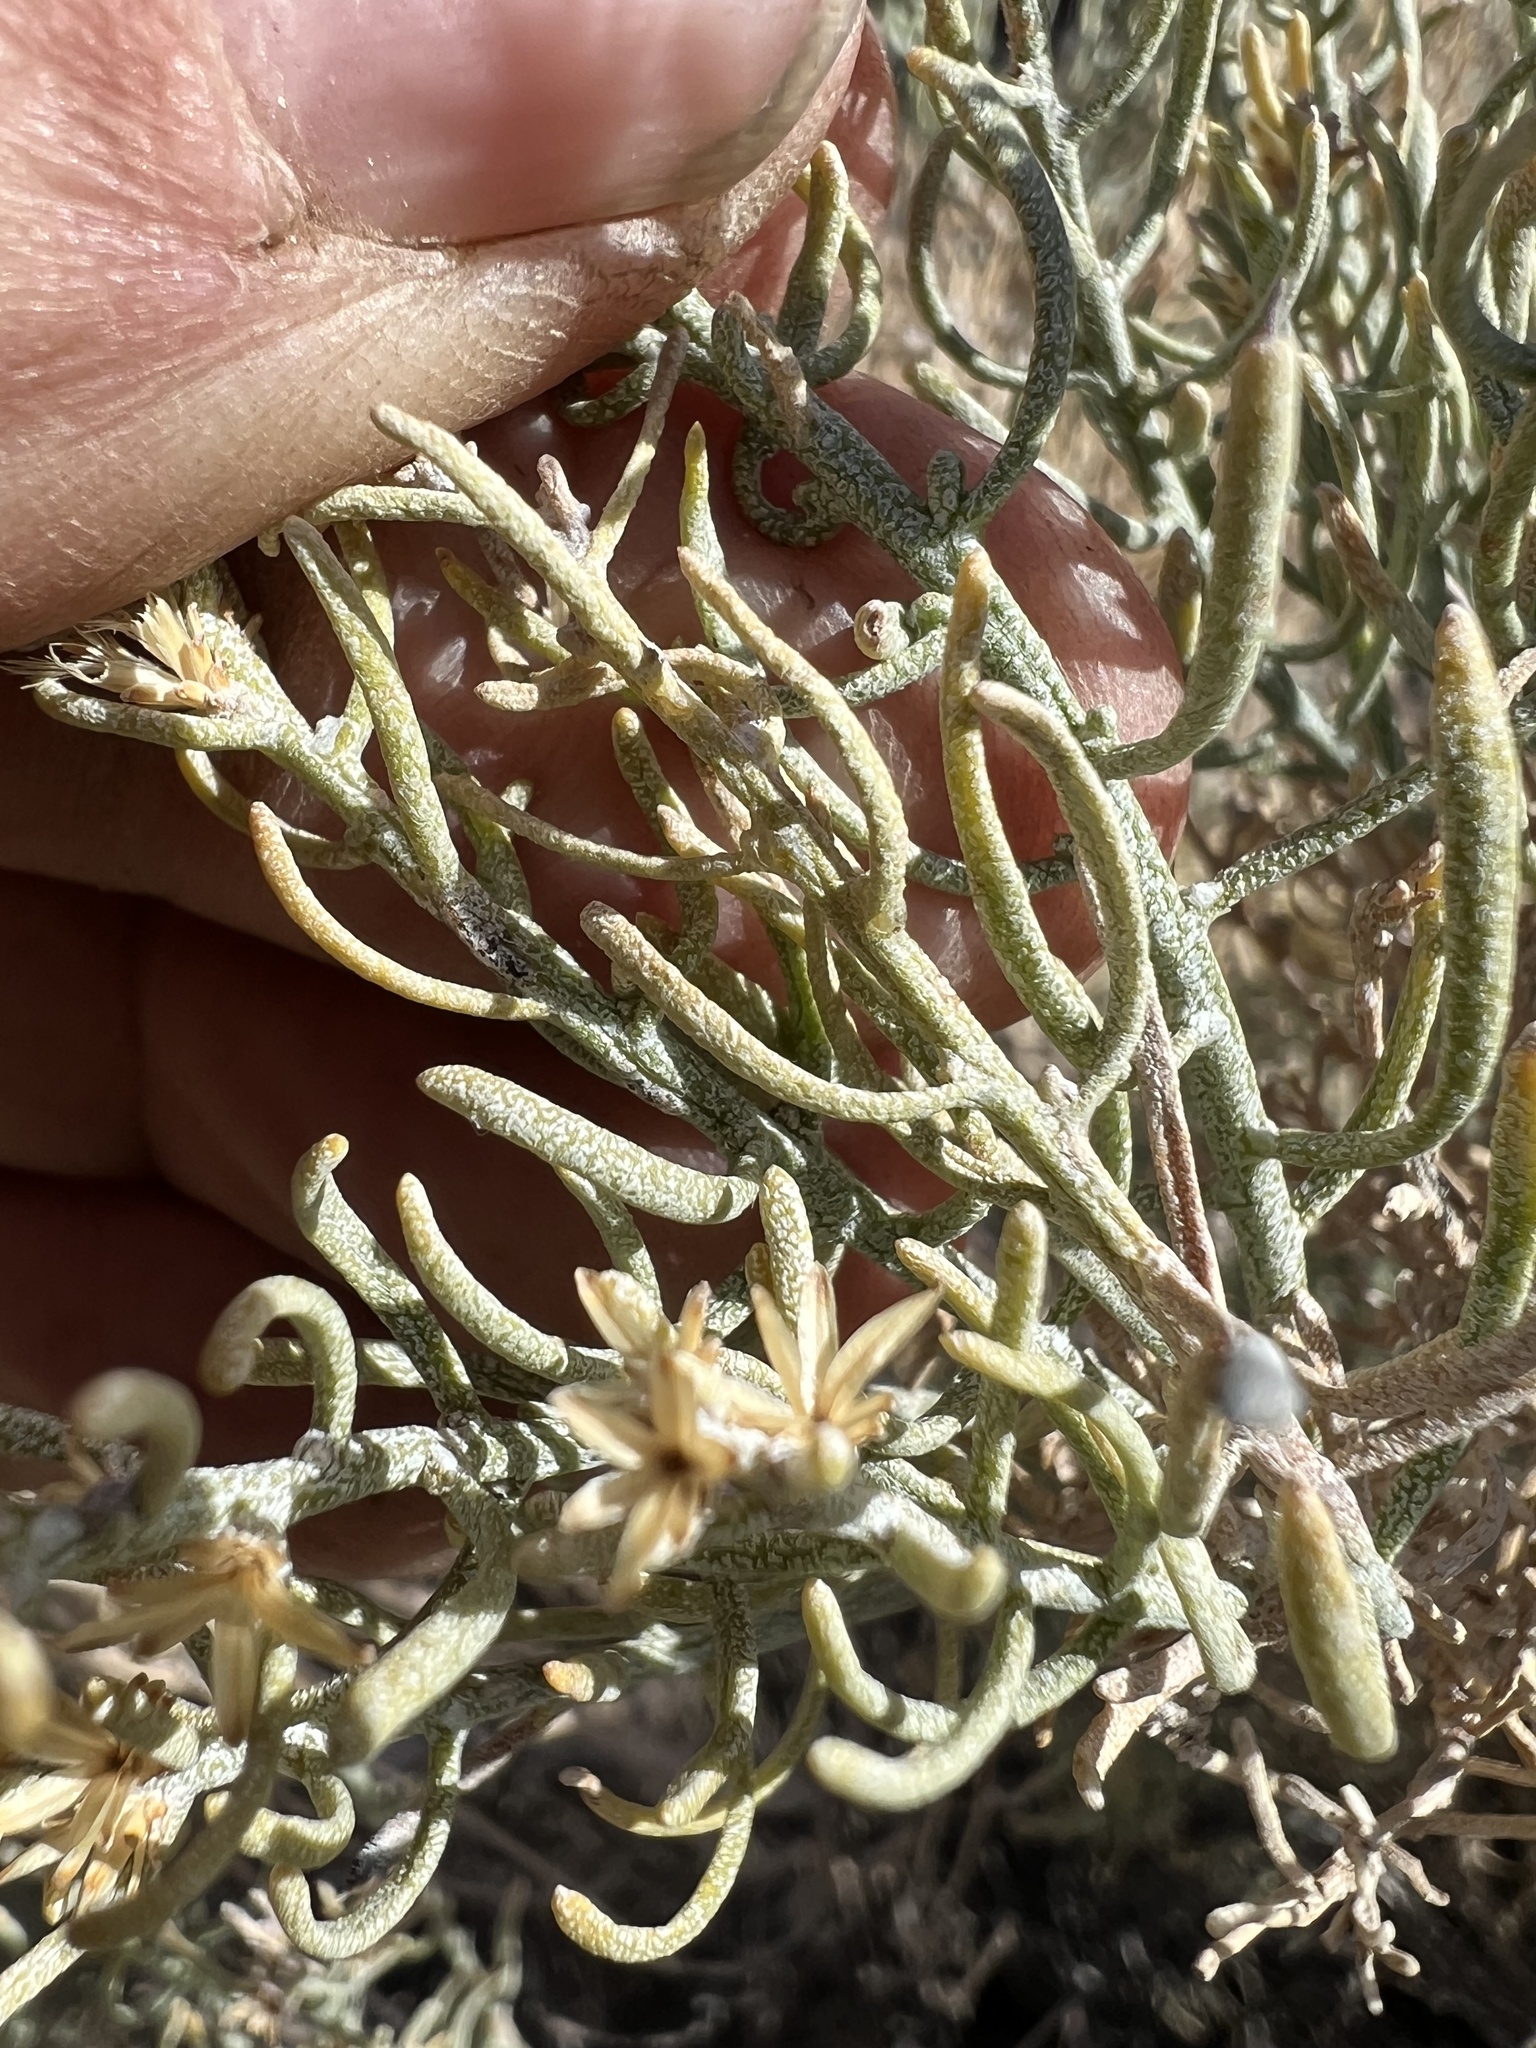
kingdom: Plantae
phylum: Tracheophyta
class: Magnoliopsida
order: Asterales
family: Asteraceae
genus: Ericameria
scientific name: Ericameria teretifolia
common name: Round-leaf rabbitbrush
